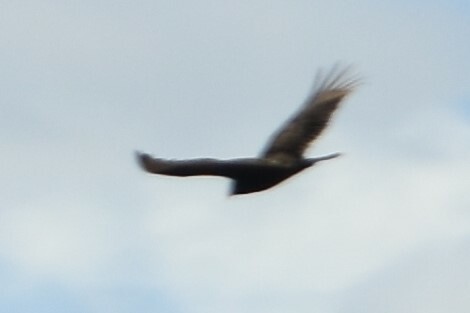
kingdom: Animalia
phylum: Chordata
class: Aves
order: Accipitriformes
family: Cathartidae
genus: Cathartes
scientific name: Cathartes aura
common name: Turkey vulture
